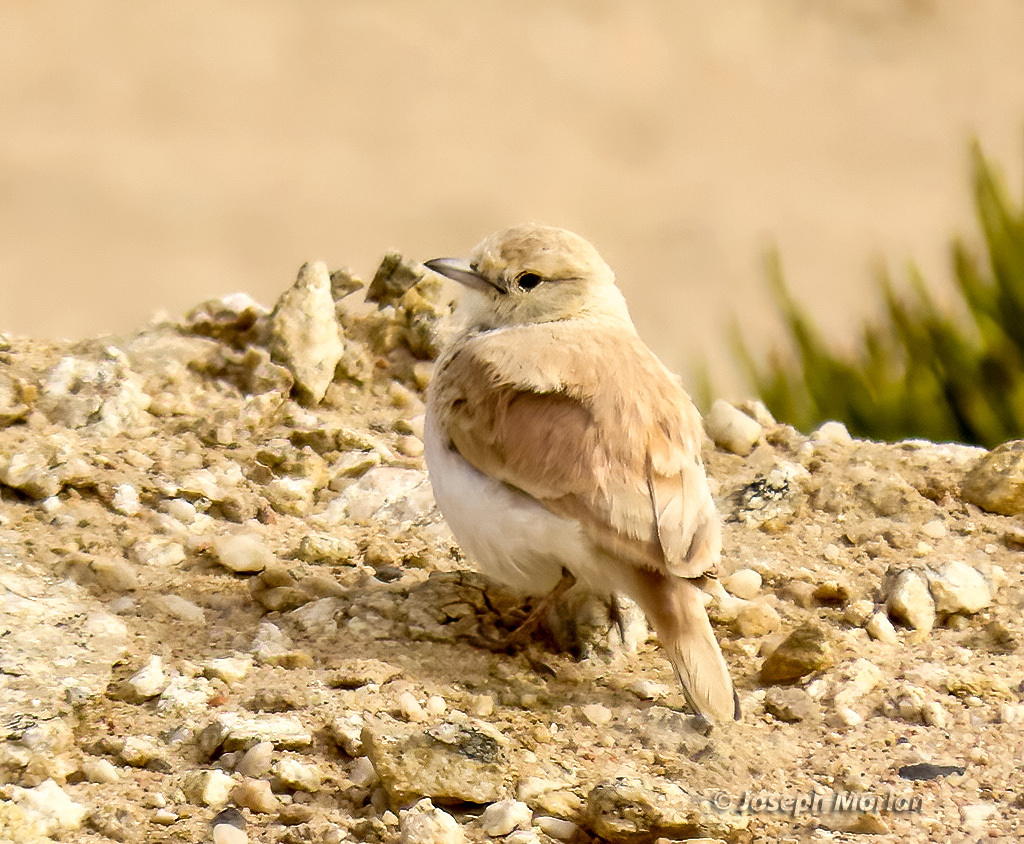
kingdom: Animalia
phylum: Chordata
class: Aves
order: Passeriformes
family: Alaudidae
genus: Ammomanopsis
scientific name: Ammomanopsis grayi
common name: Gray's lark
